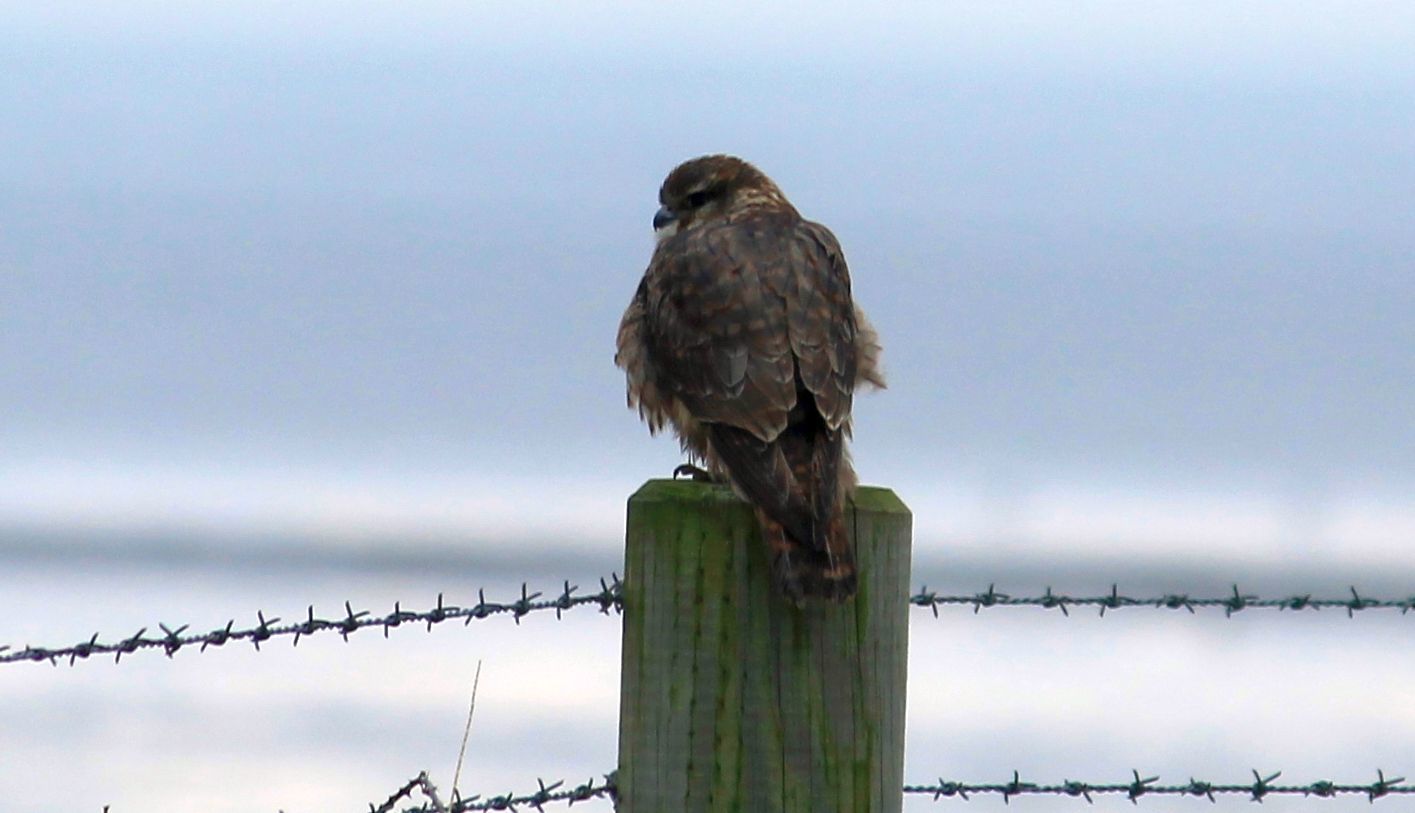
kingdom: Animalia
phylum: Chordata
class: Aves
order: Falconiformes
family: Falconidae
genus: Falco
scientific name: Falco columbarius
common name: Merlin
